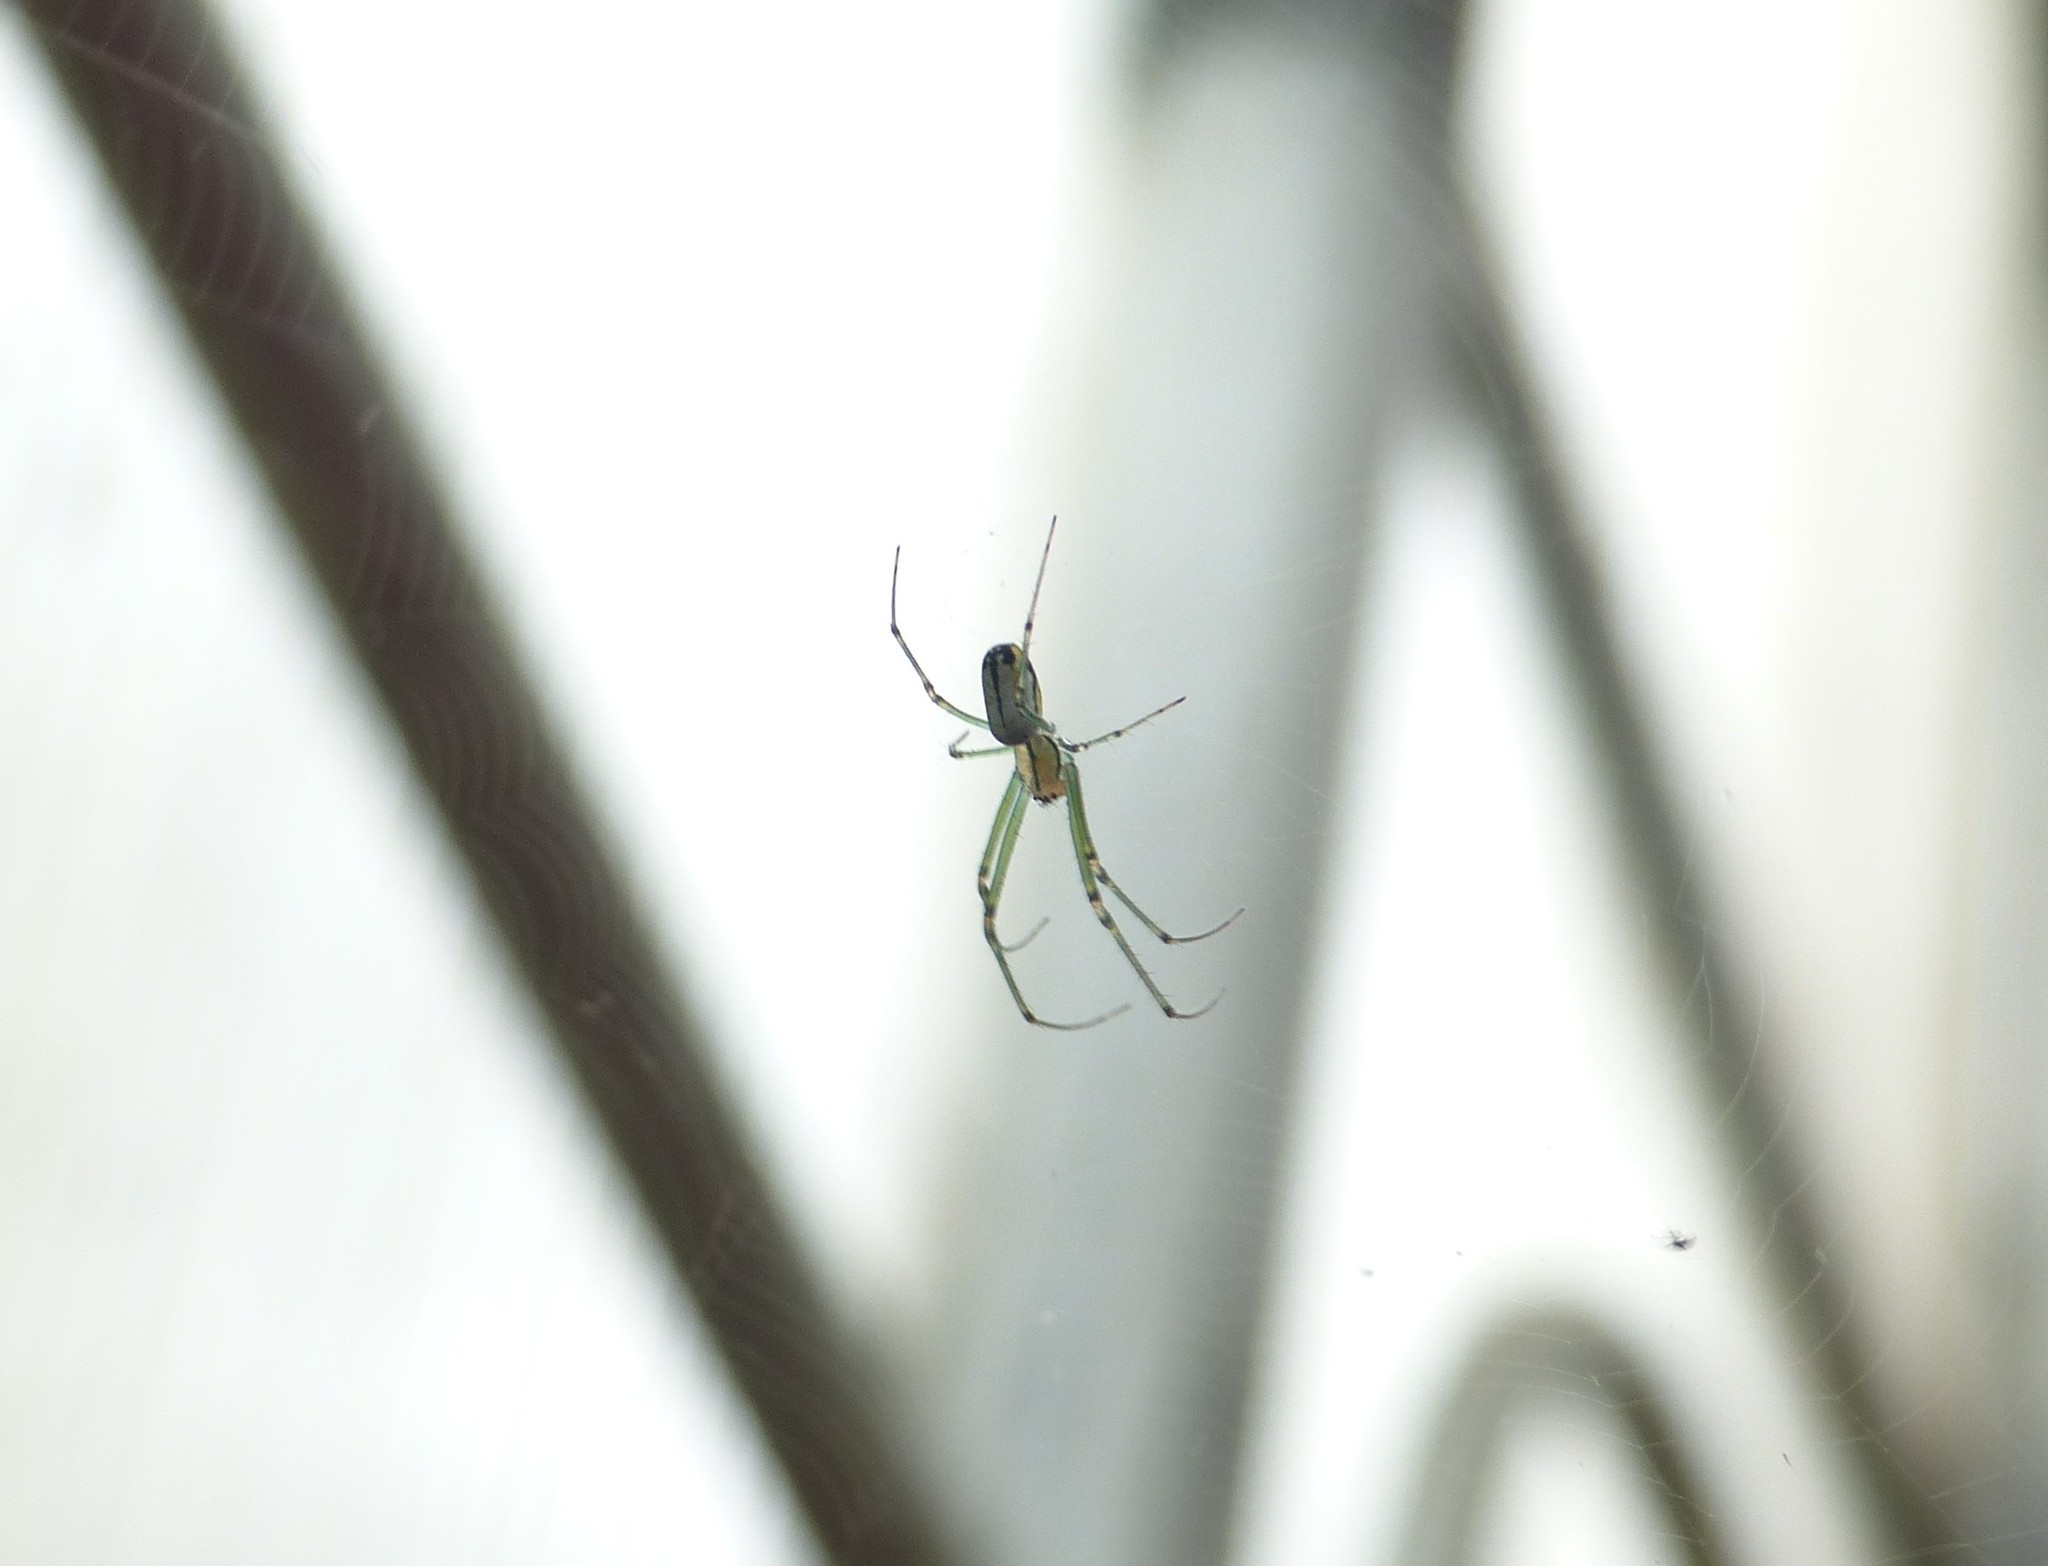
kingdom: Animalia
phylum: Arthropoda
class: Arachnida
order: Araneae
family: Tetragnathidae
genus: Leucauge
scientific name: Leucauge venusta
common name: Longjawed orb weavers
